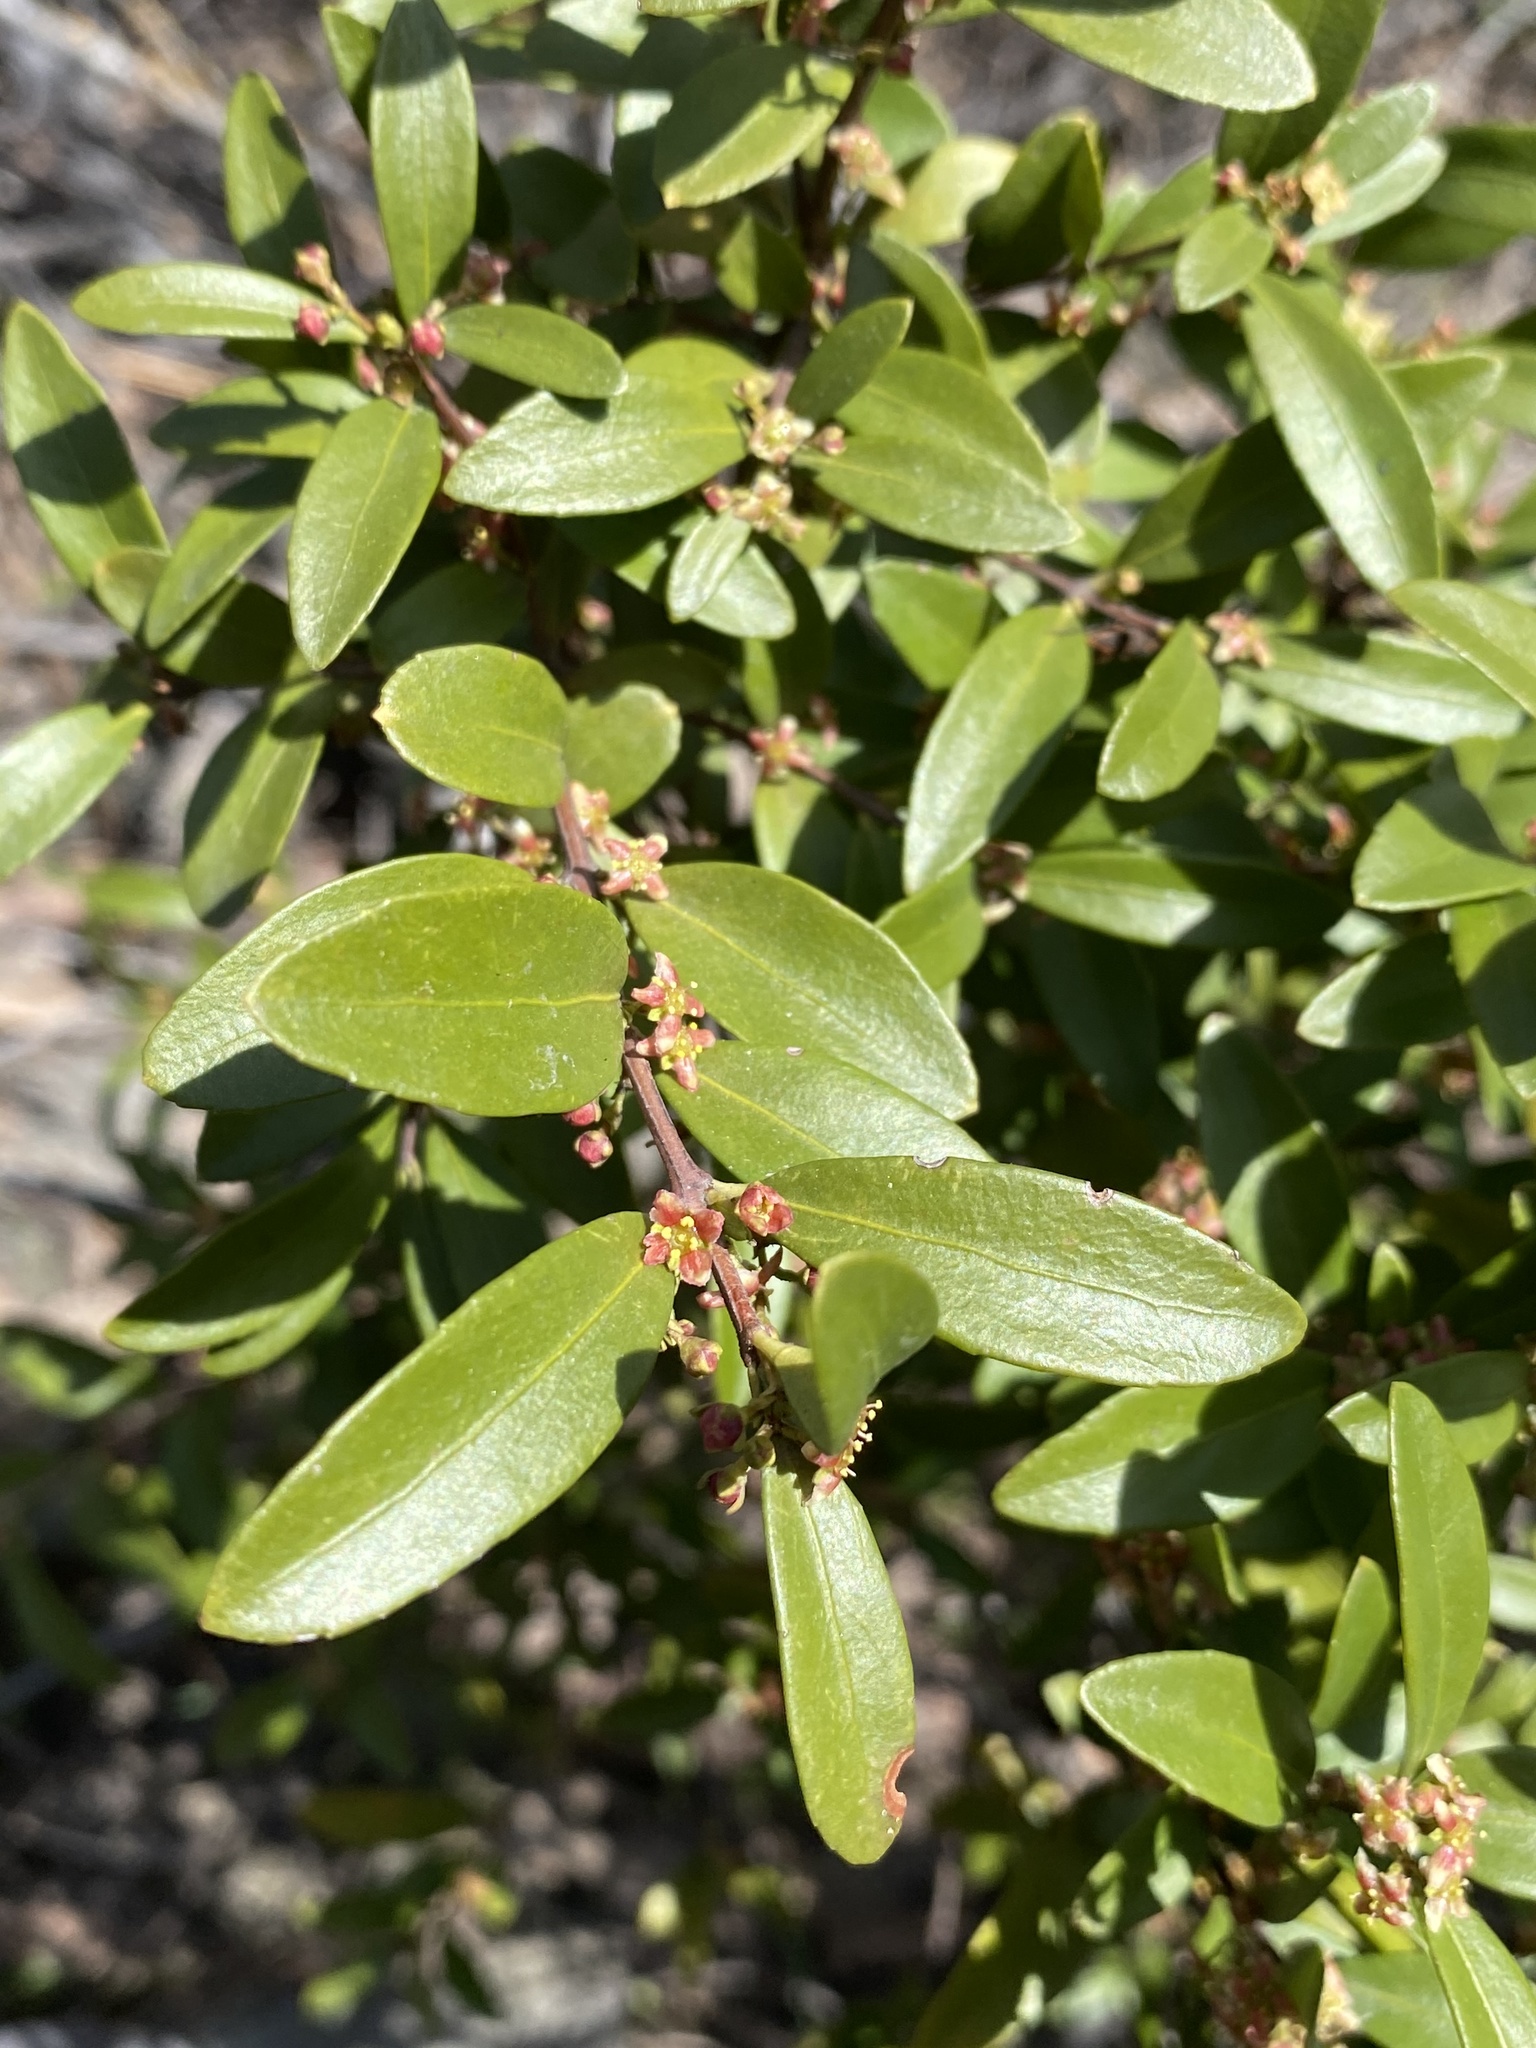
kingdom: Plantae
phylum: Tracheophyta
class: Magnoliopsida
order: Celastrales
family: Celastraceae
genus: Paxistima
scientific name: Paxistima myrsinites
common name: Mountain-lover
